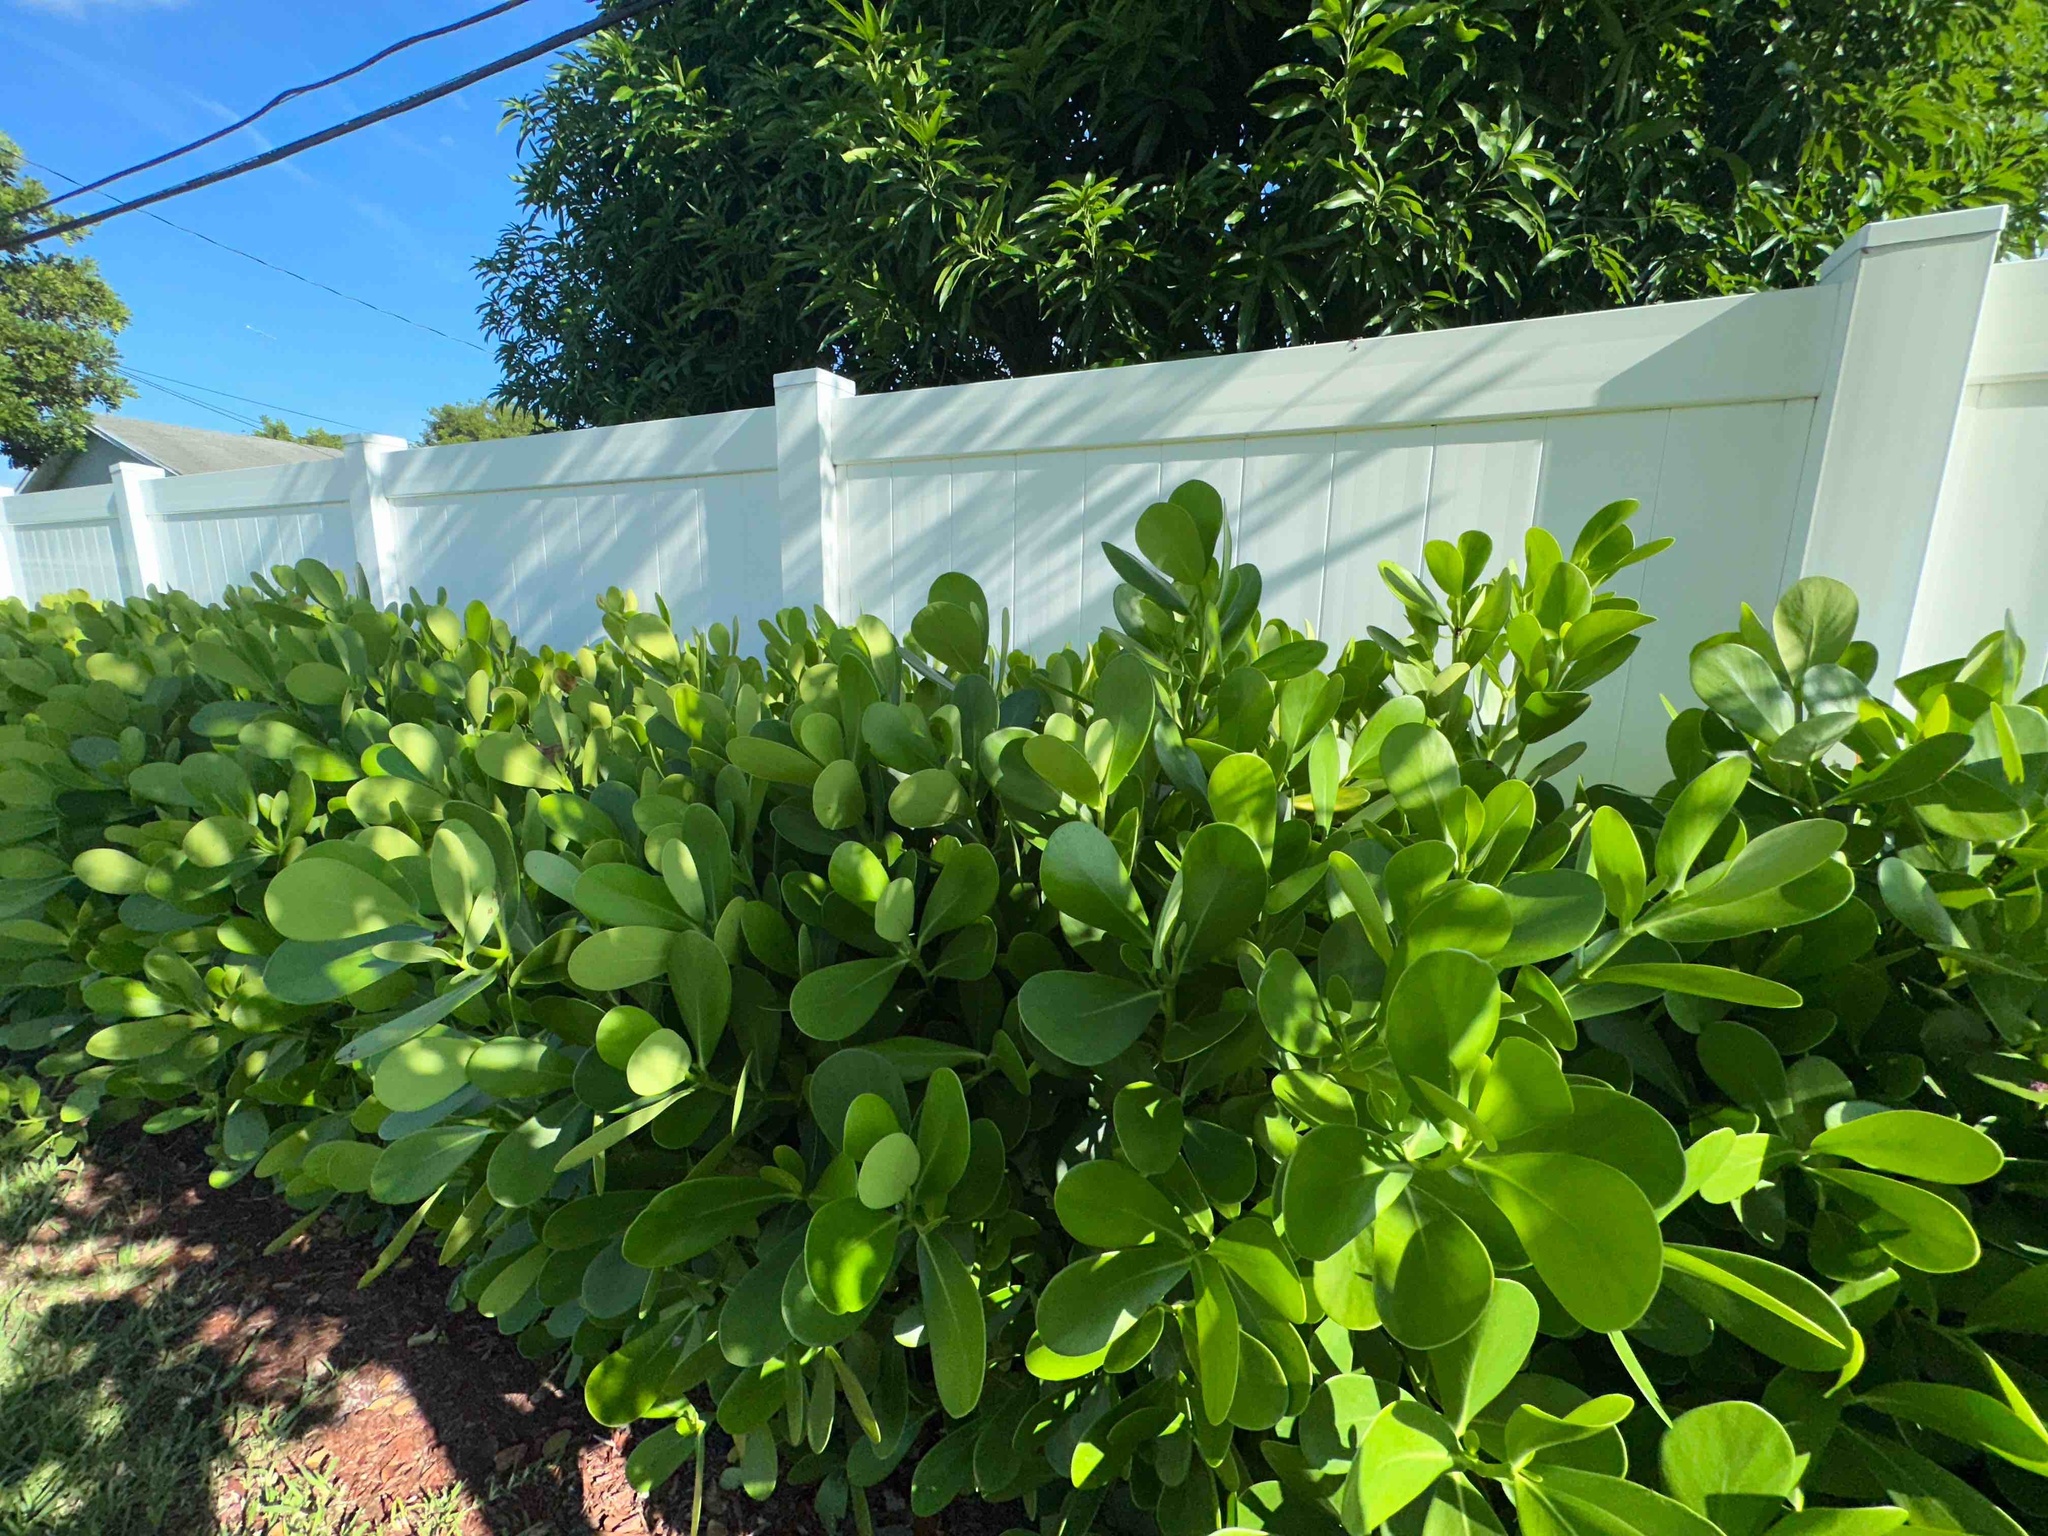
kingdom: Plantae
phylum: Tracheophyta
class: Magnoliopsida
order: Malpighiales
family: Clusiaceae
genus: Clusia
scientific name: Clusia rosea
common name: Scotch attorney
